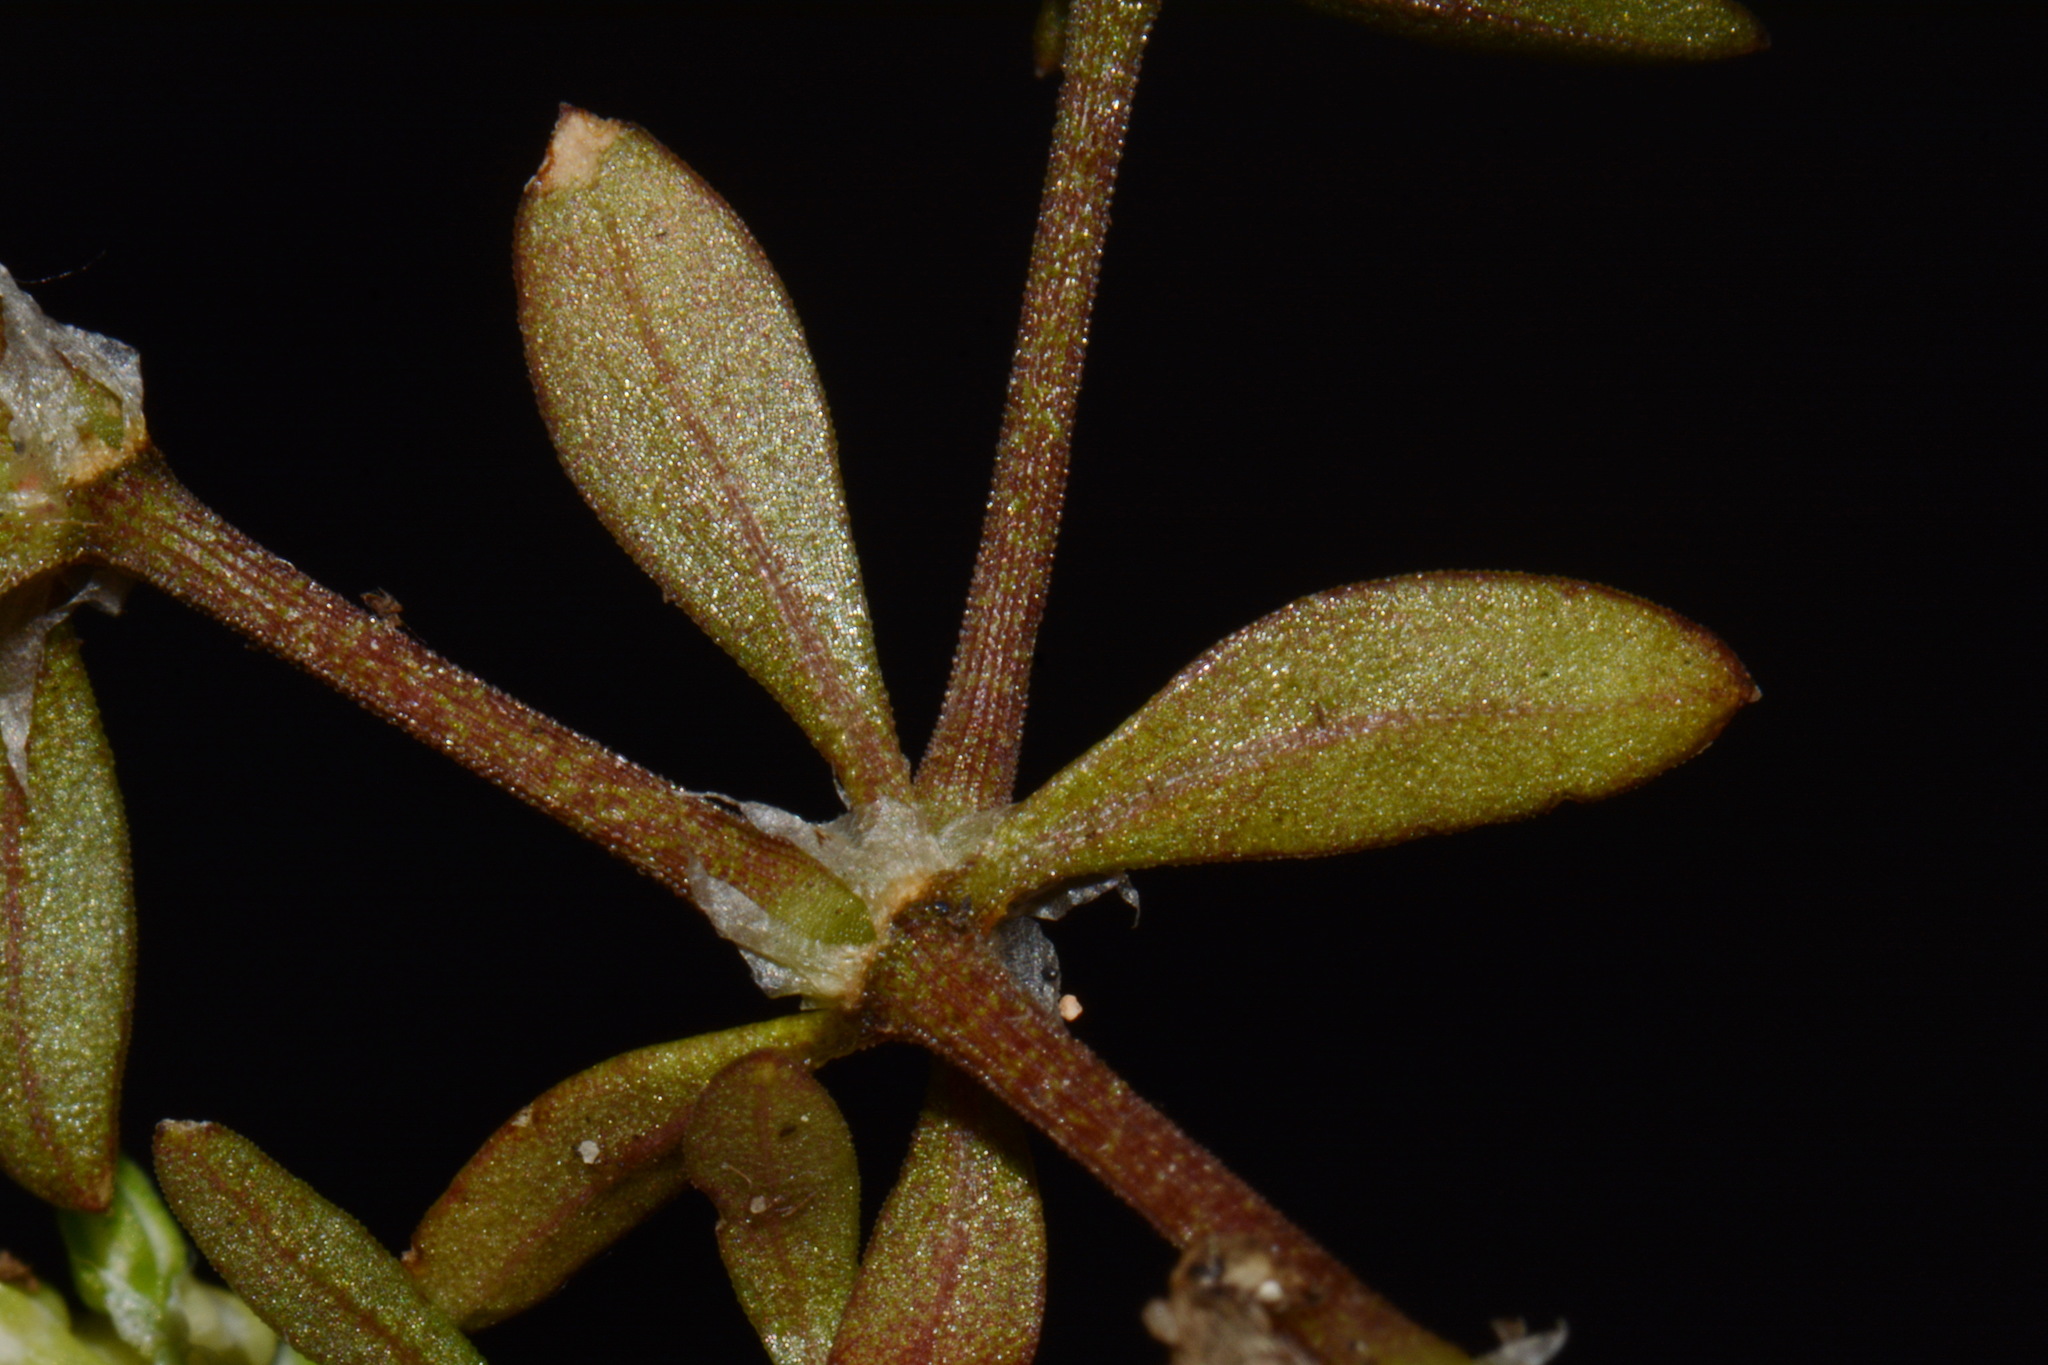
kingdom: Plantae
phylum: Tracheophyta
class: Magnoliopsida
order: Caryophyllales
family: Caryophyllaceae
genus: Polycarpon
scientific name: Polycarpon tetraphyllum
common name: Four-leaved all-seed
